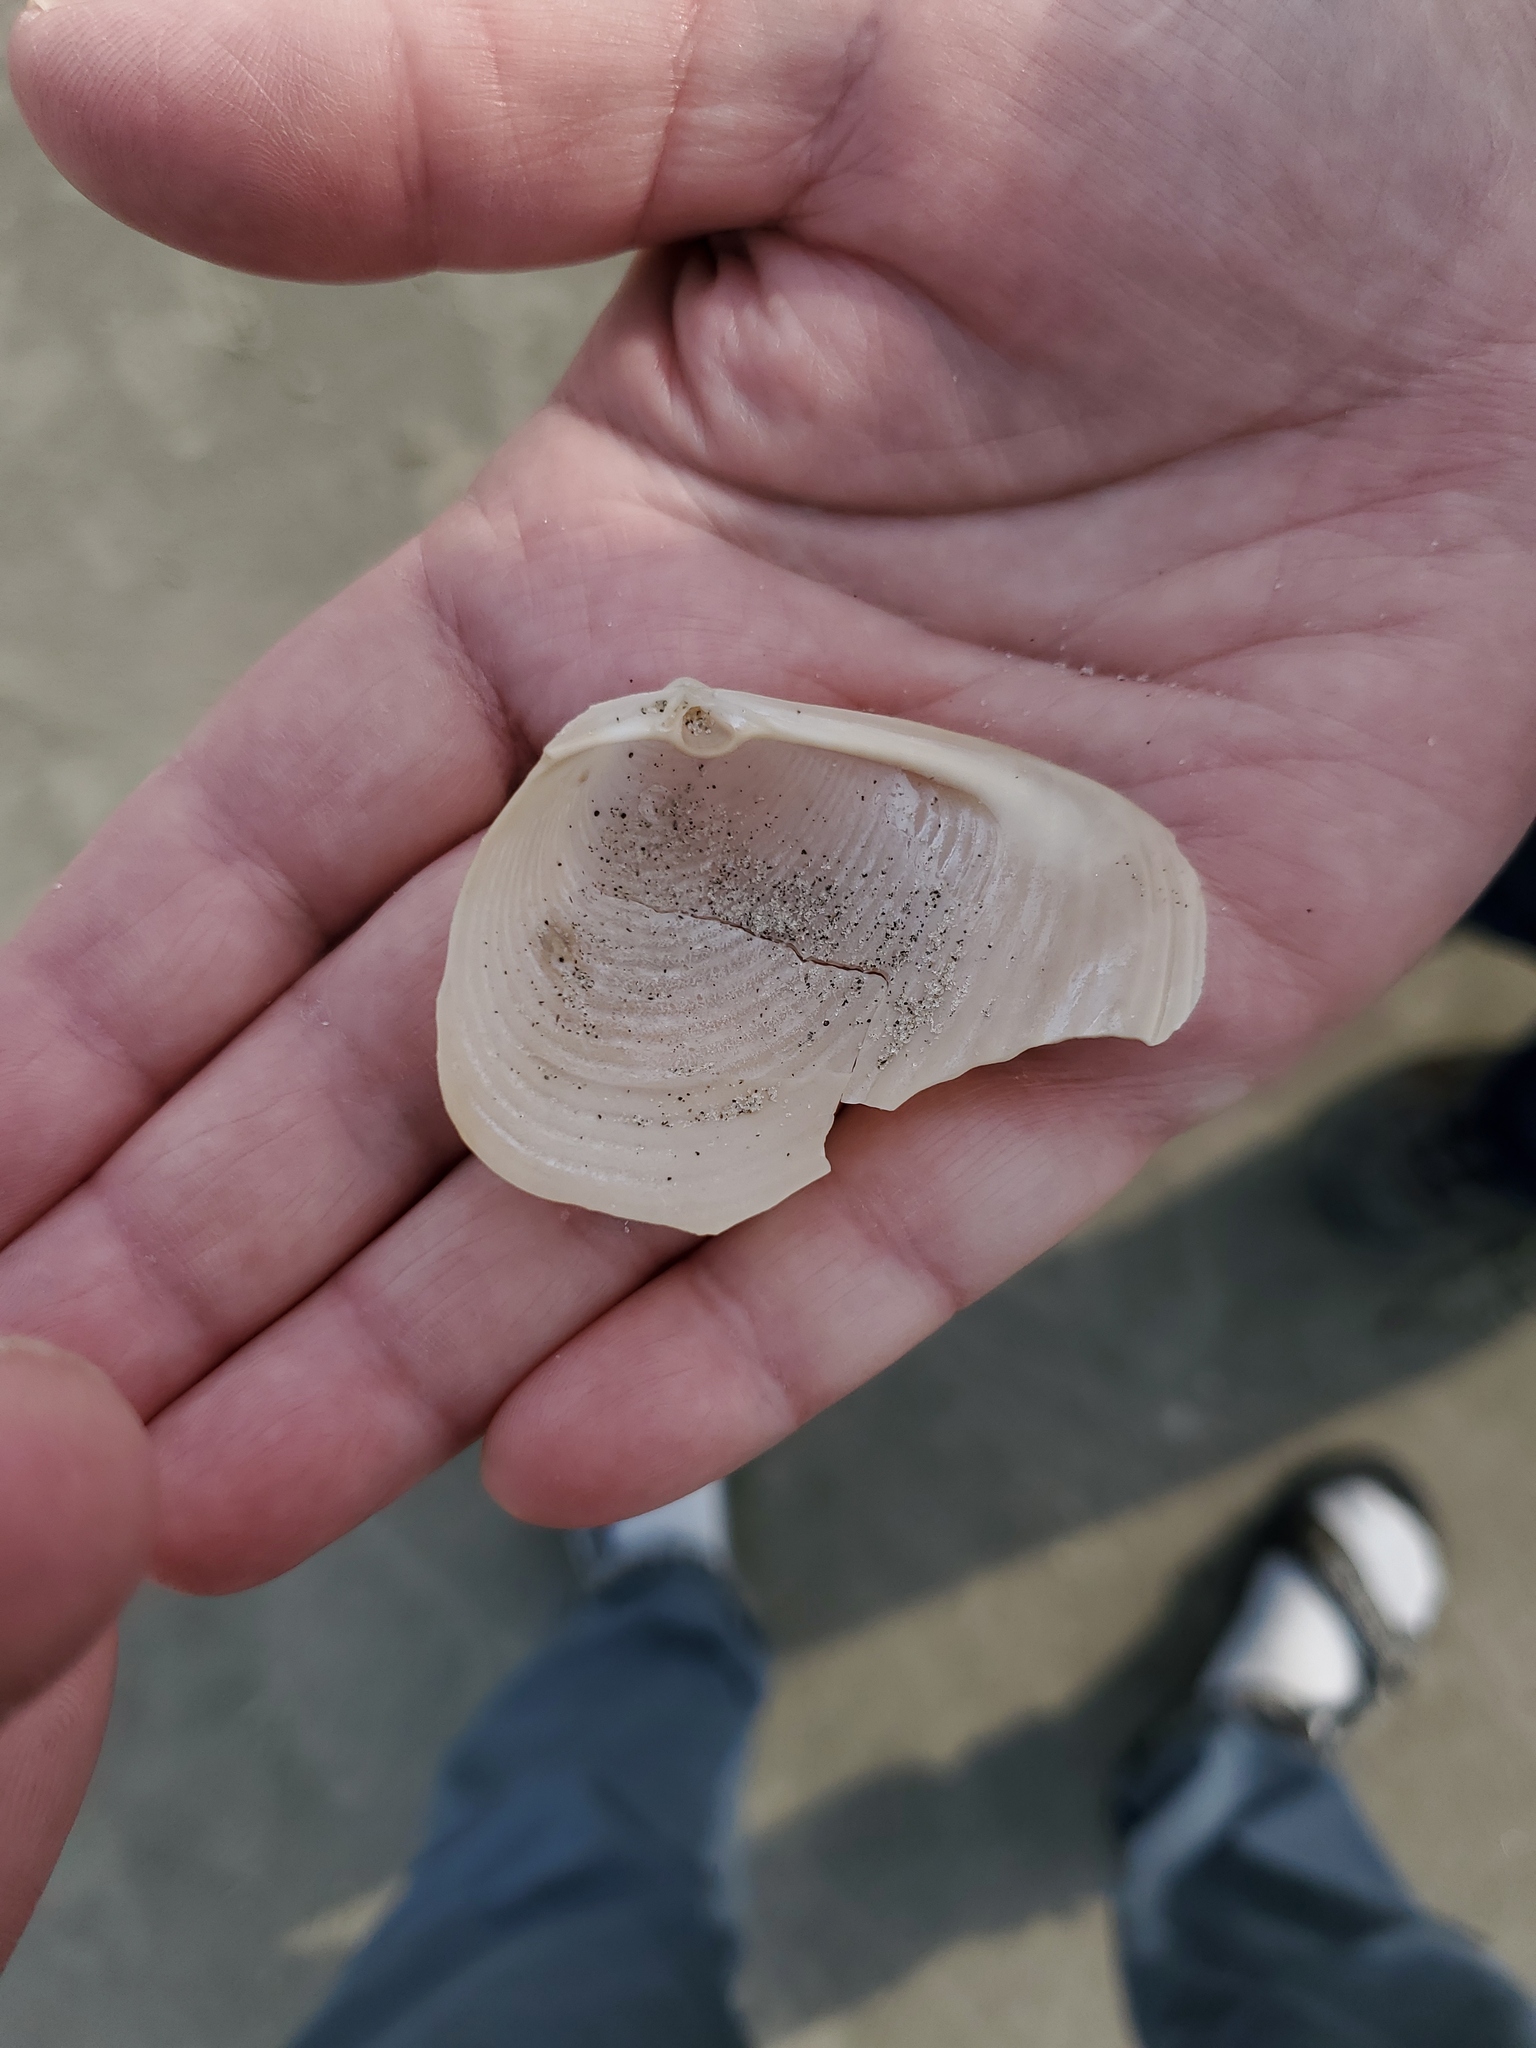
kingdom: Animalia
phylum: Mollusca
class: Bivalvia
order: Venerida
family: Anatinellidae
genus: Raeta
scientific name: Raeta plicatella
